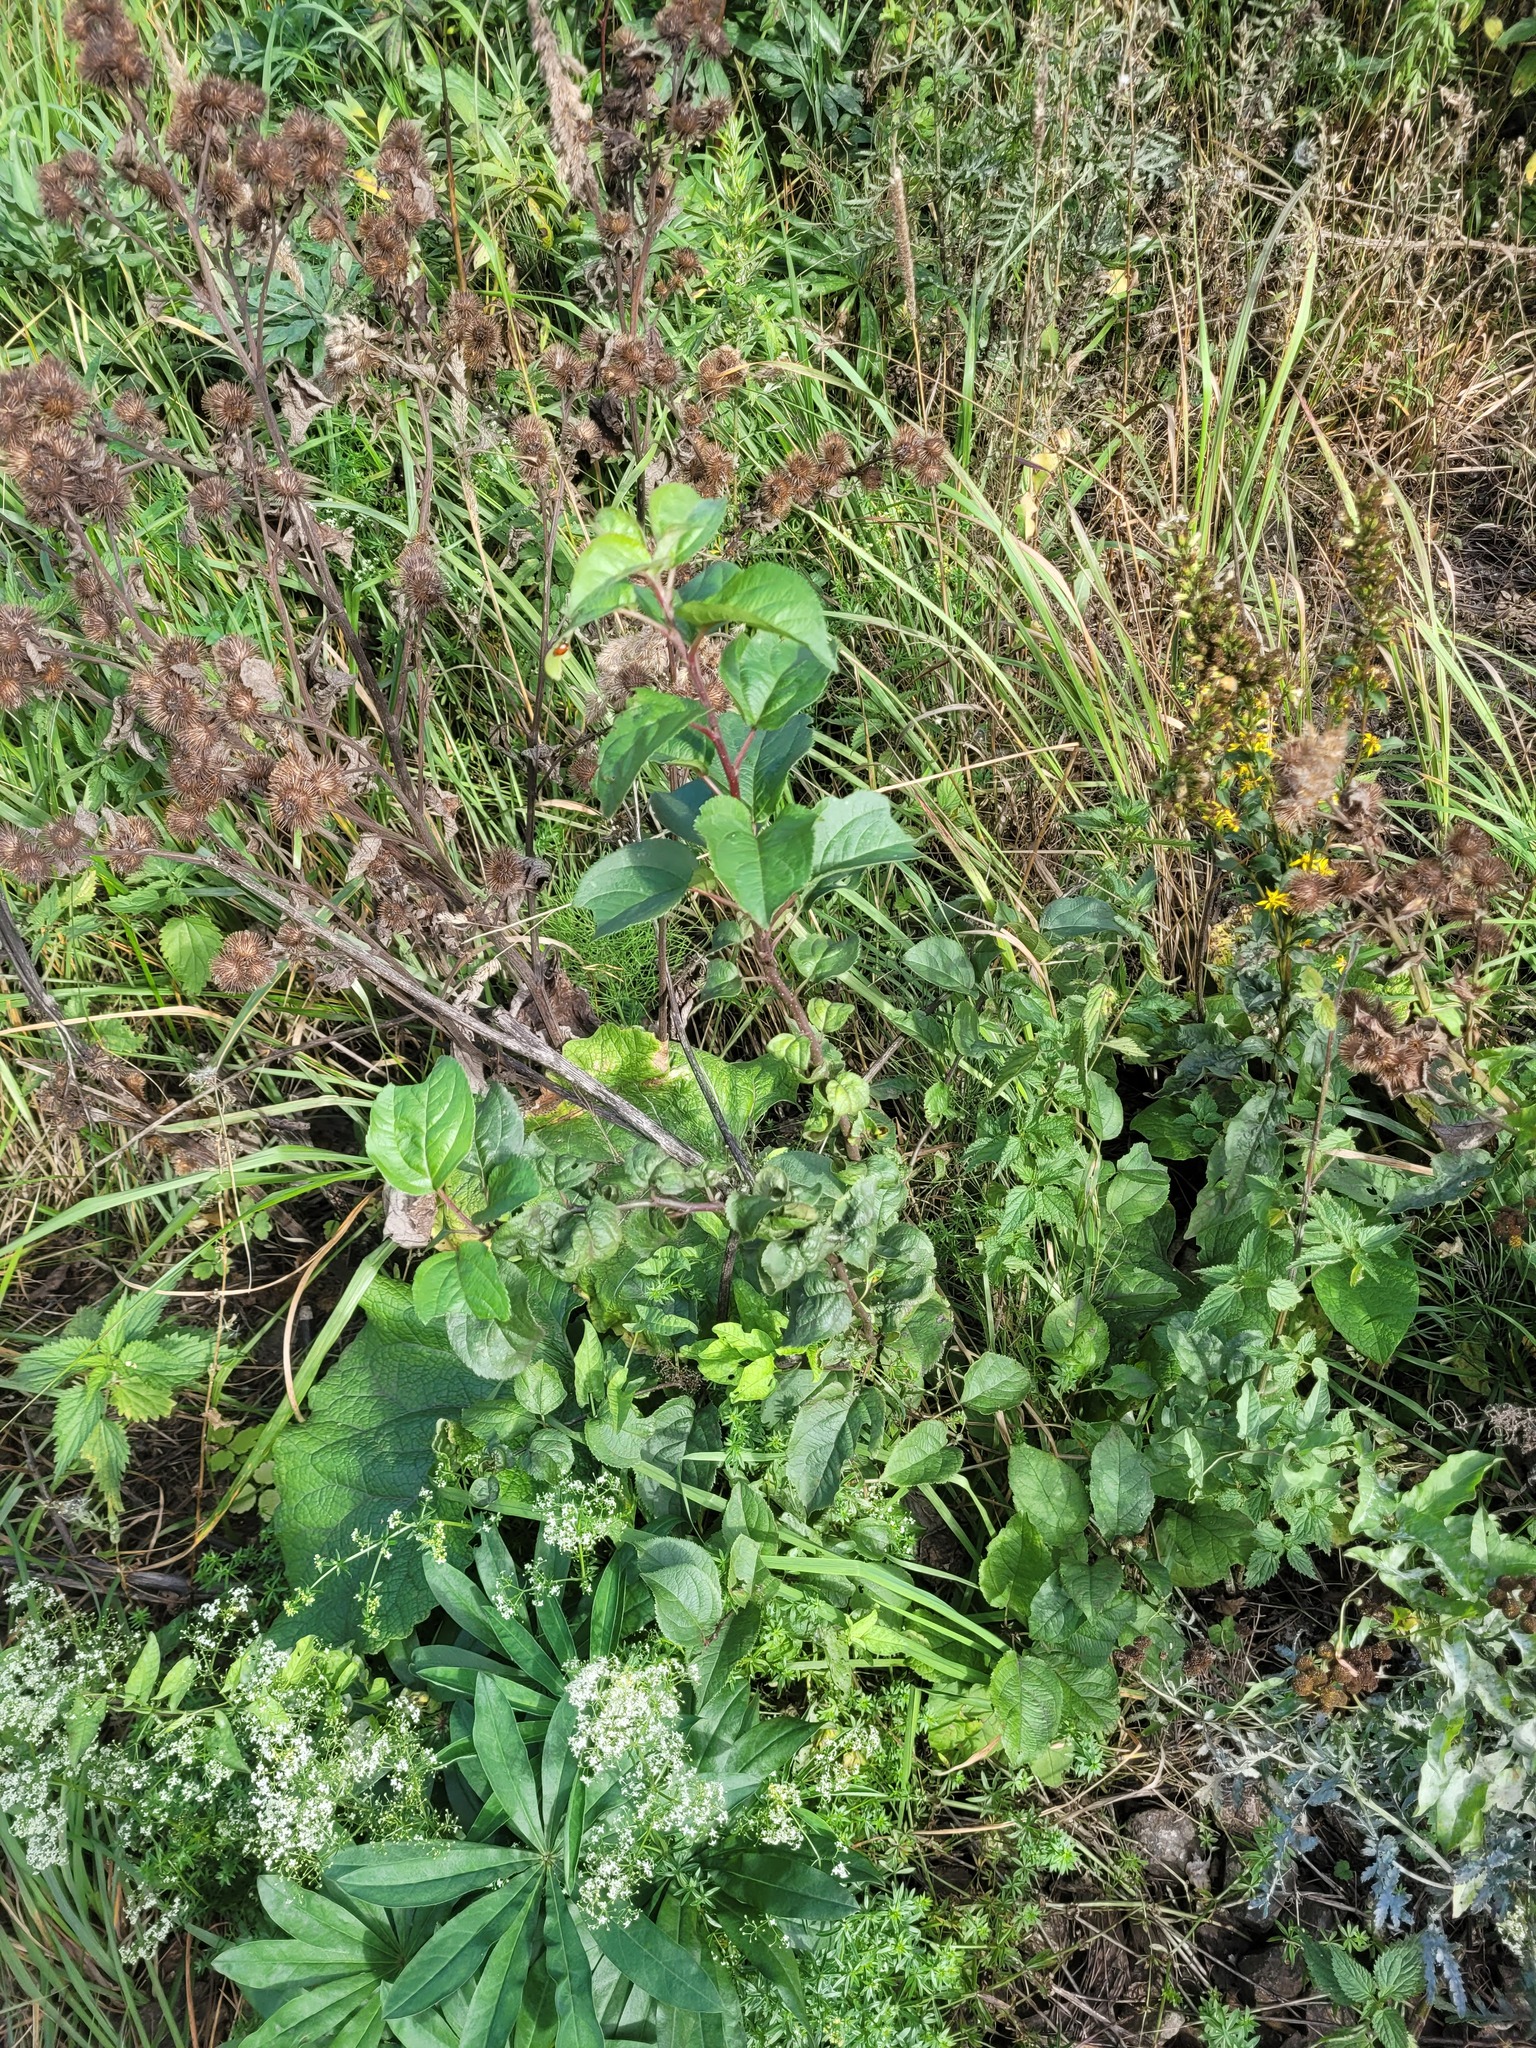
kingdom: Plantae
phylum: Tracheophyta
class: Magnoliopsida
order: Rosales
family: Rosaceae
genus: Malus
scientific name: Malus domestica
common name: Apple
